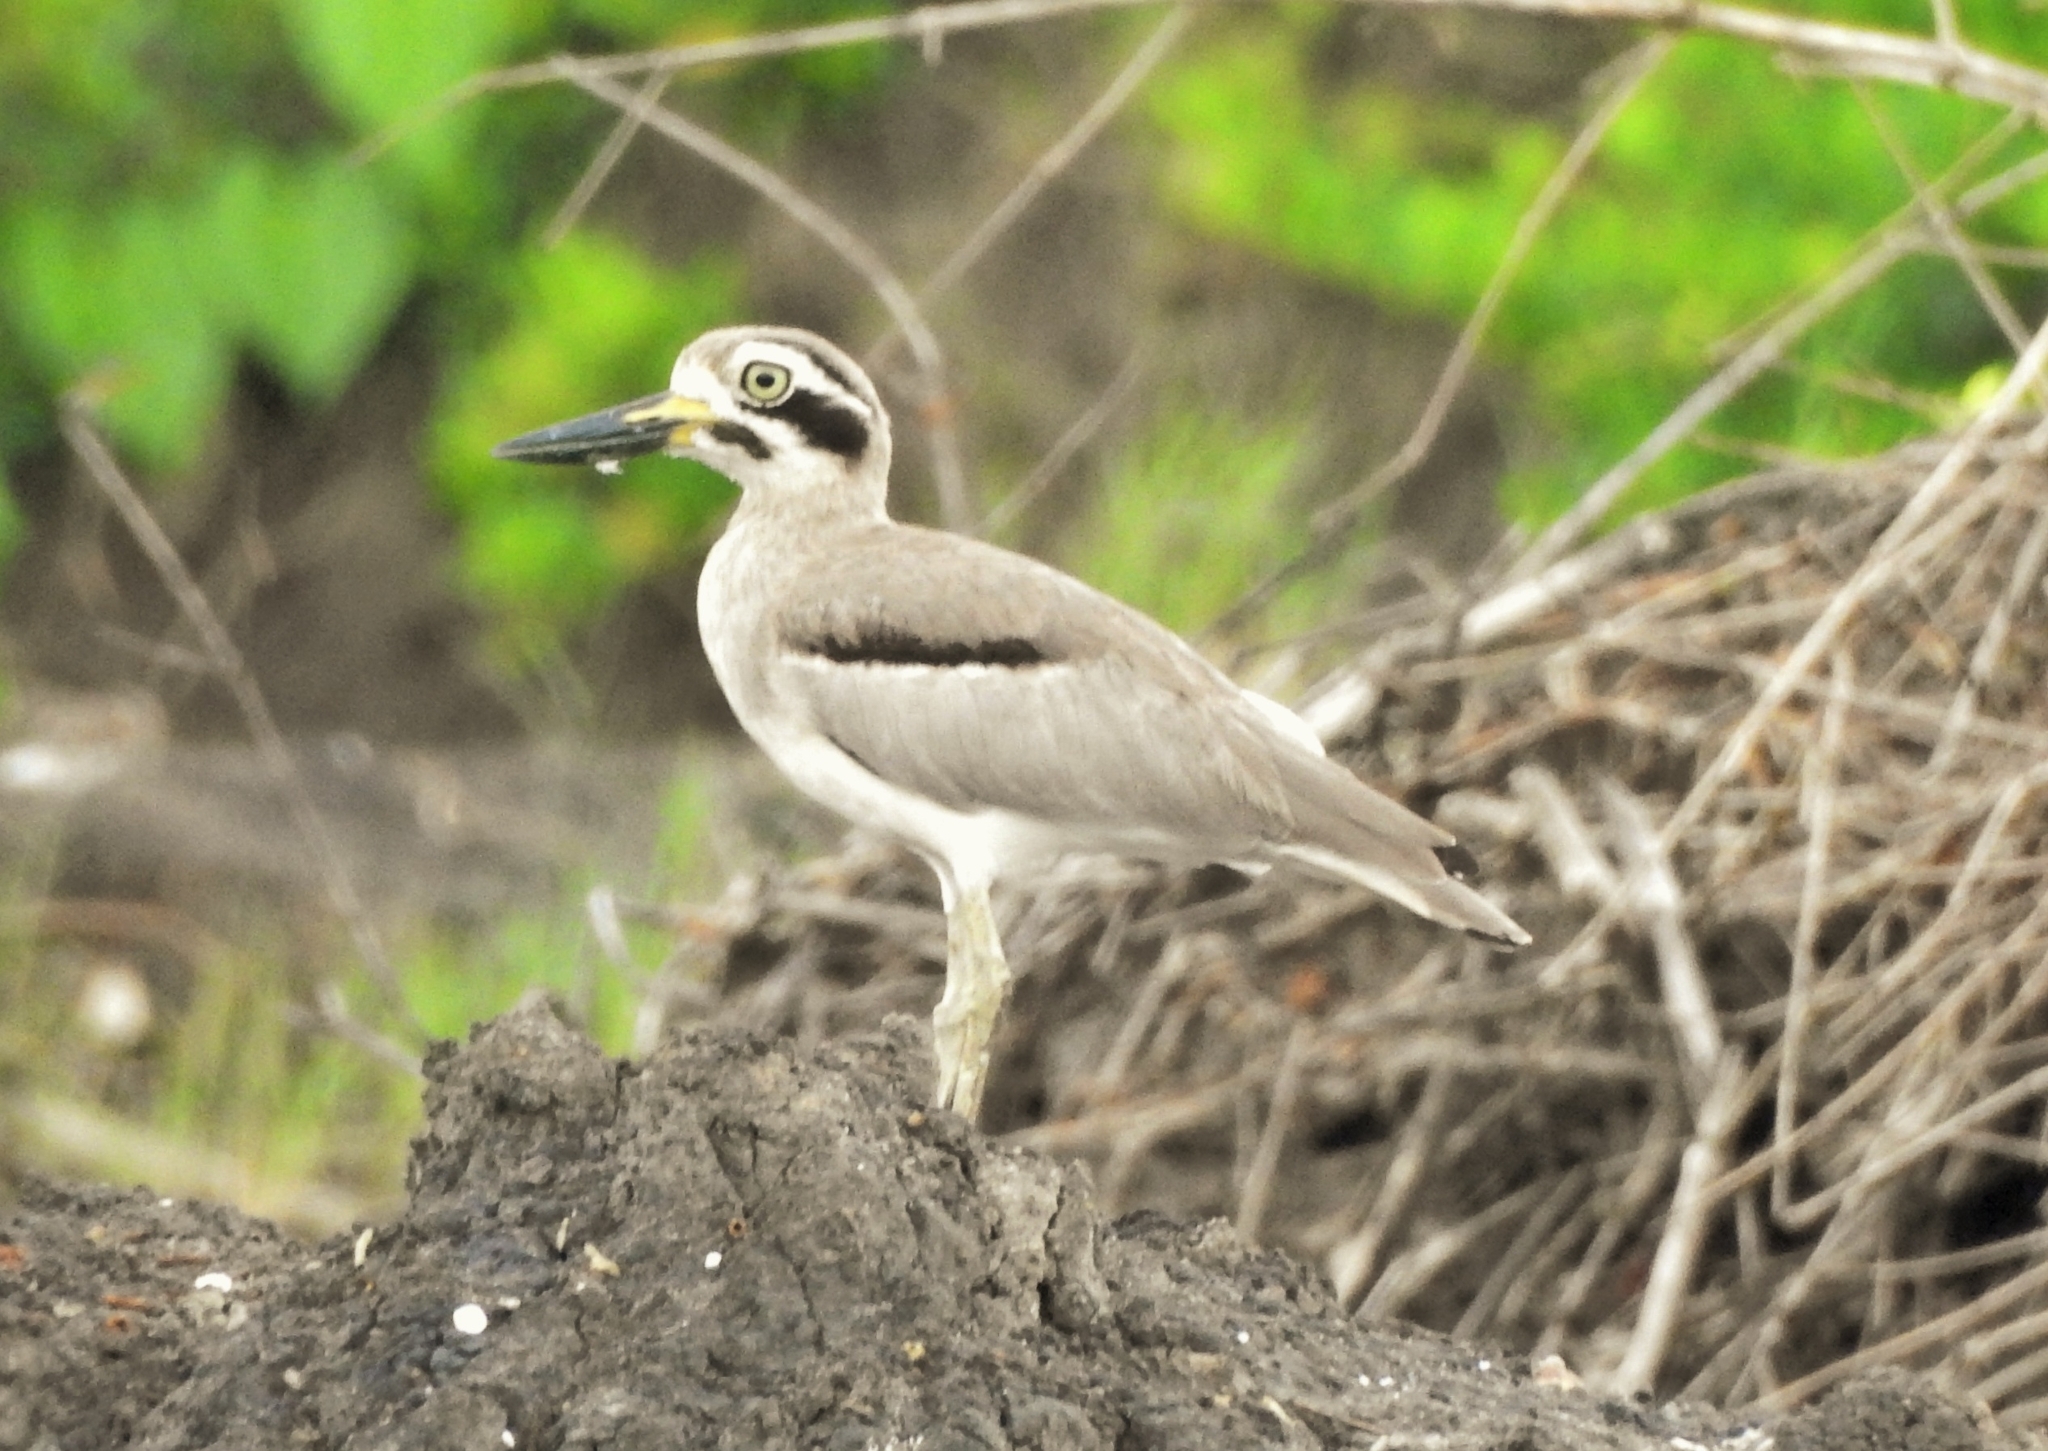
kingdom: Animalia
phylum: Chordata
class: Aves
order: Charadriiformes
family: Burhinidae
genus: Esacus
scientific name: Esacus recurvirostris
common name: Great stone-curlew
